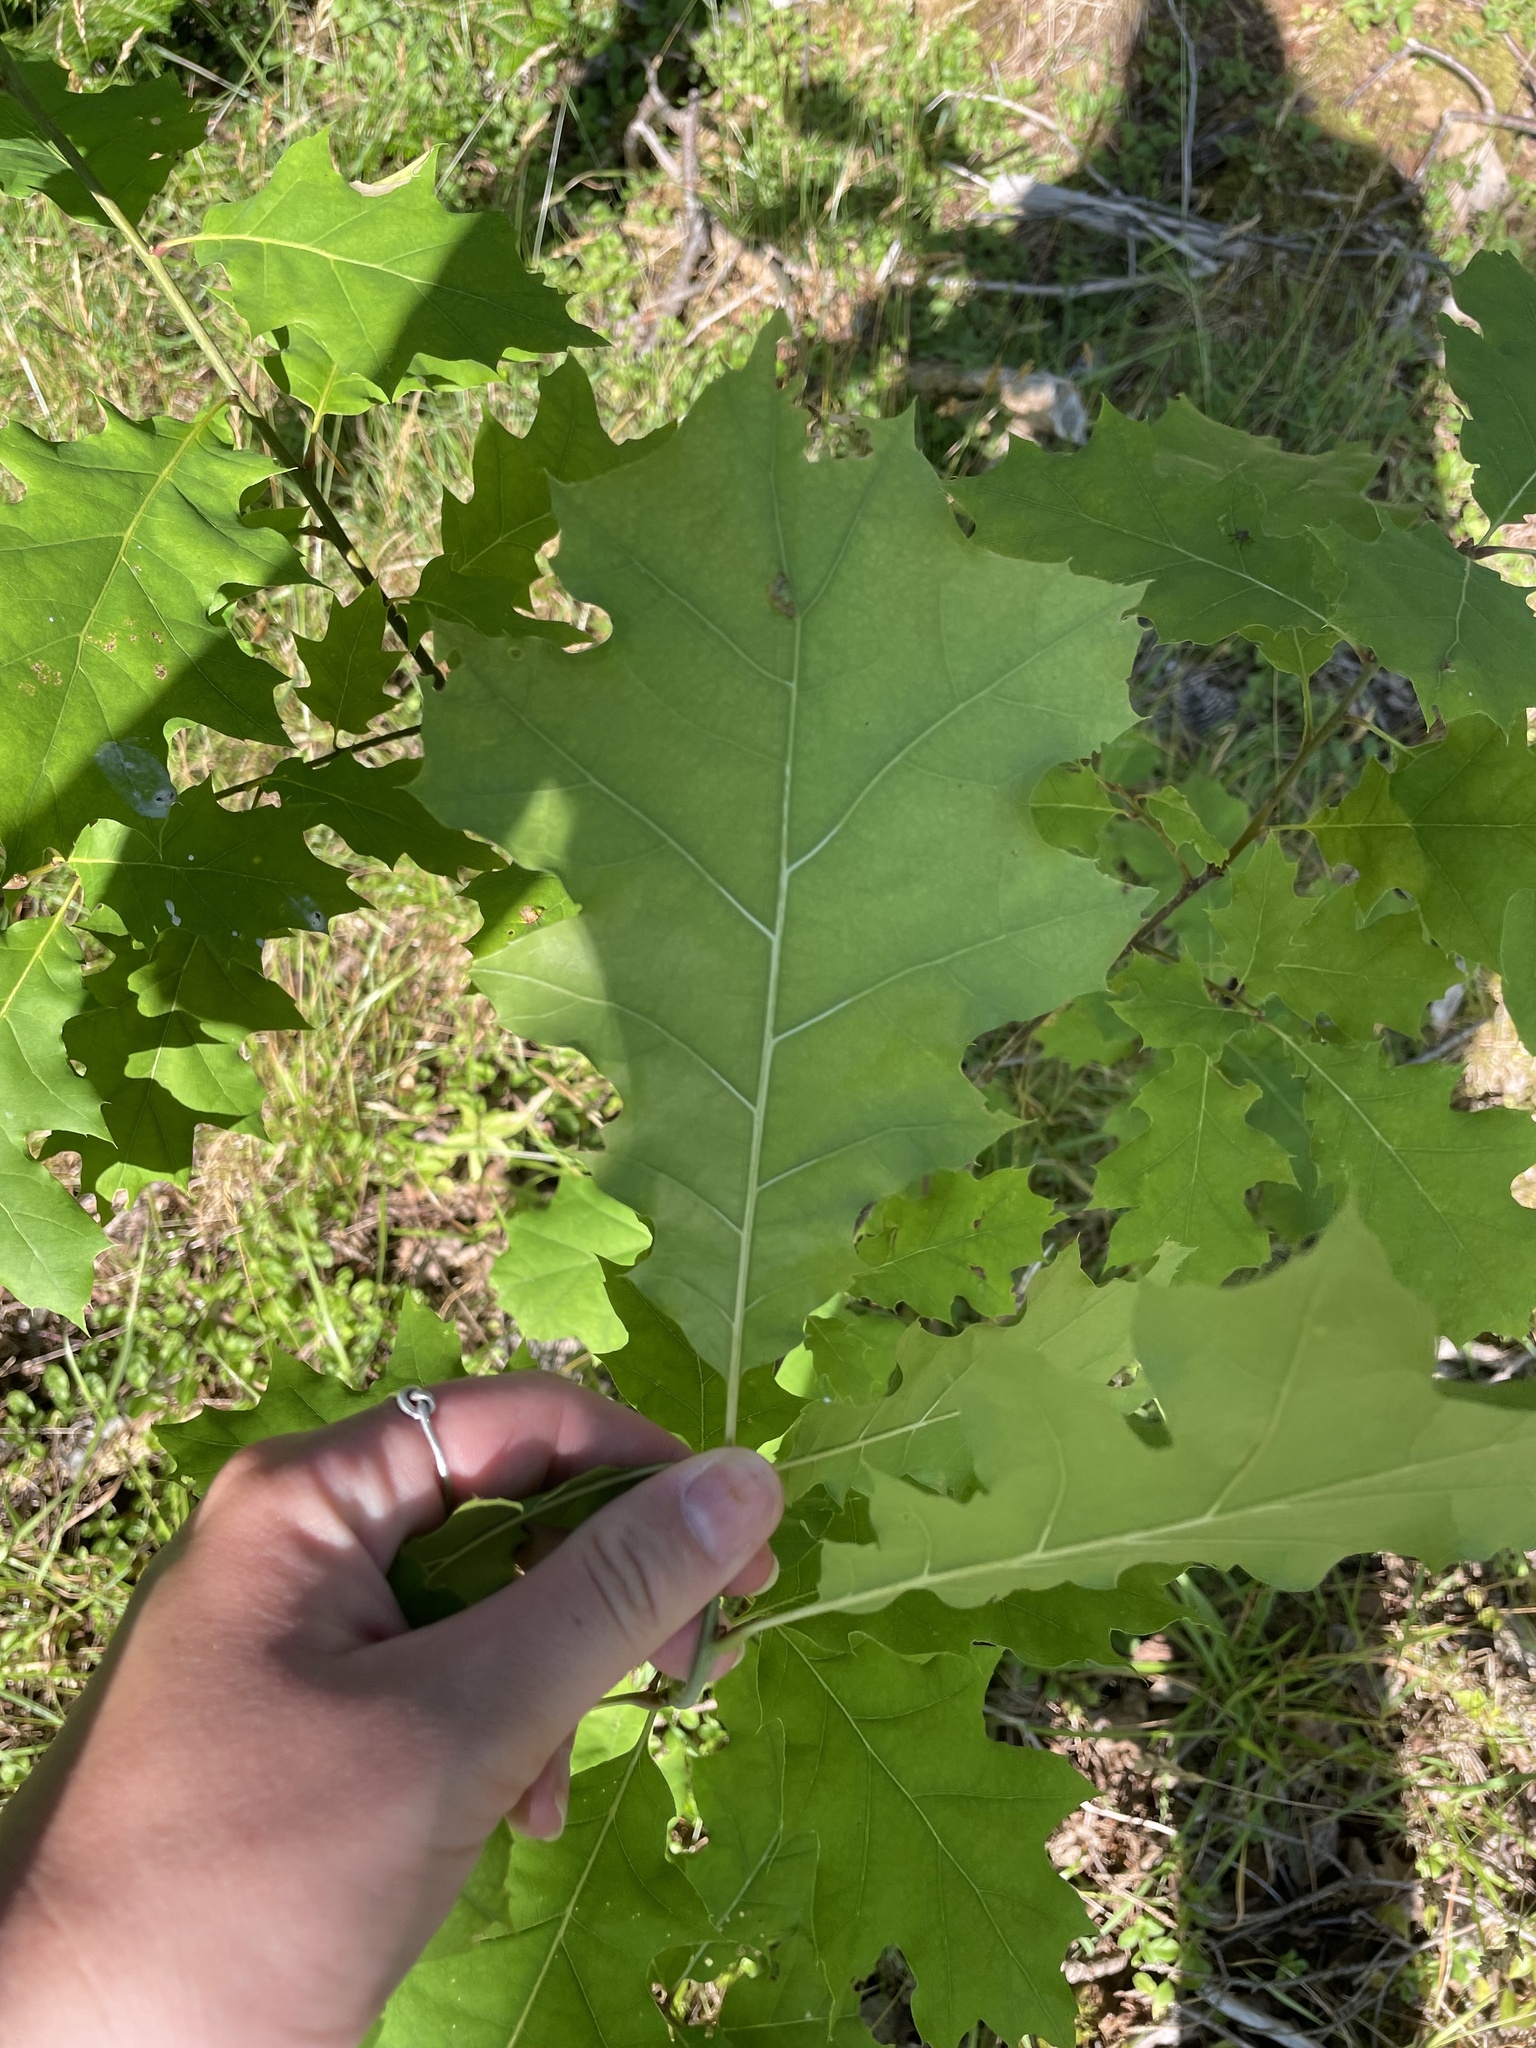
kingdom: Plantae
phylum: Tracheophyta
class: Magnoliopsida
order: Fagales
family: Fagaceae
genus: Quercus
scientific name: Quercus rubra
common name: Red oak
